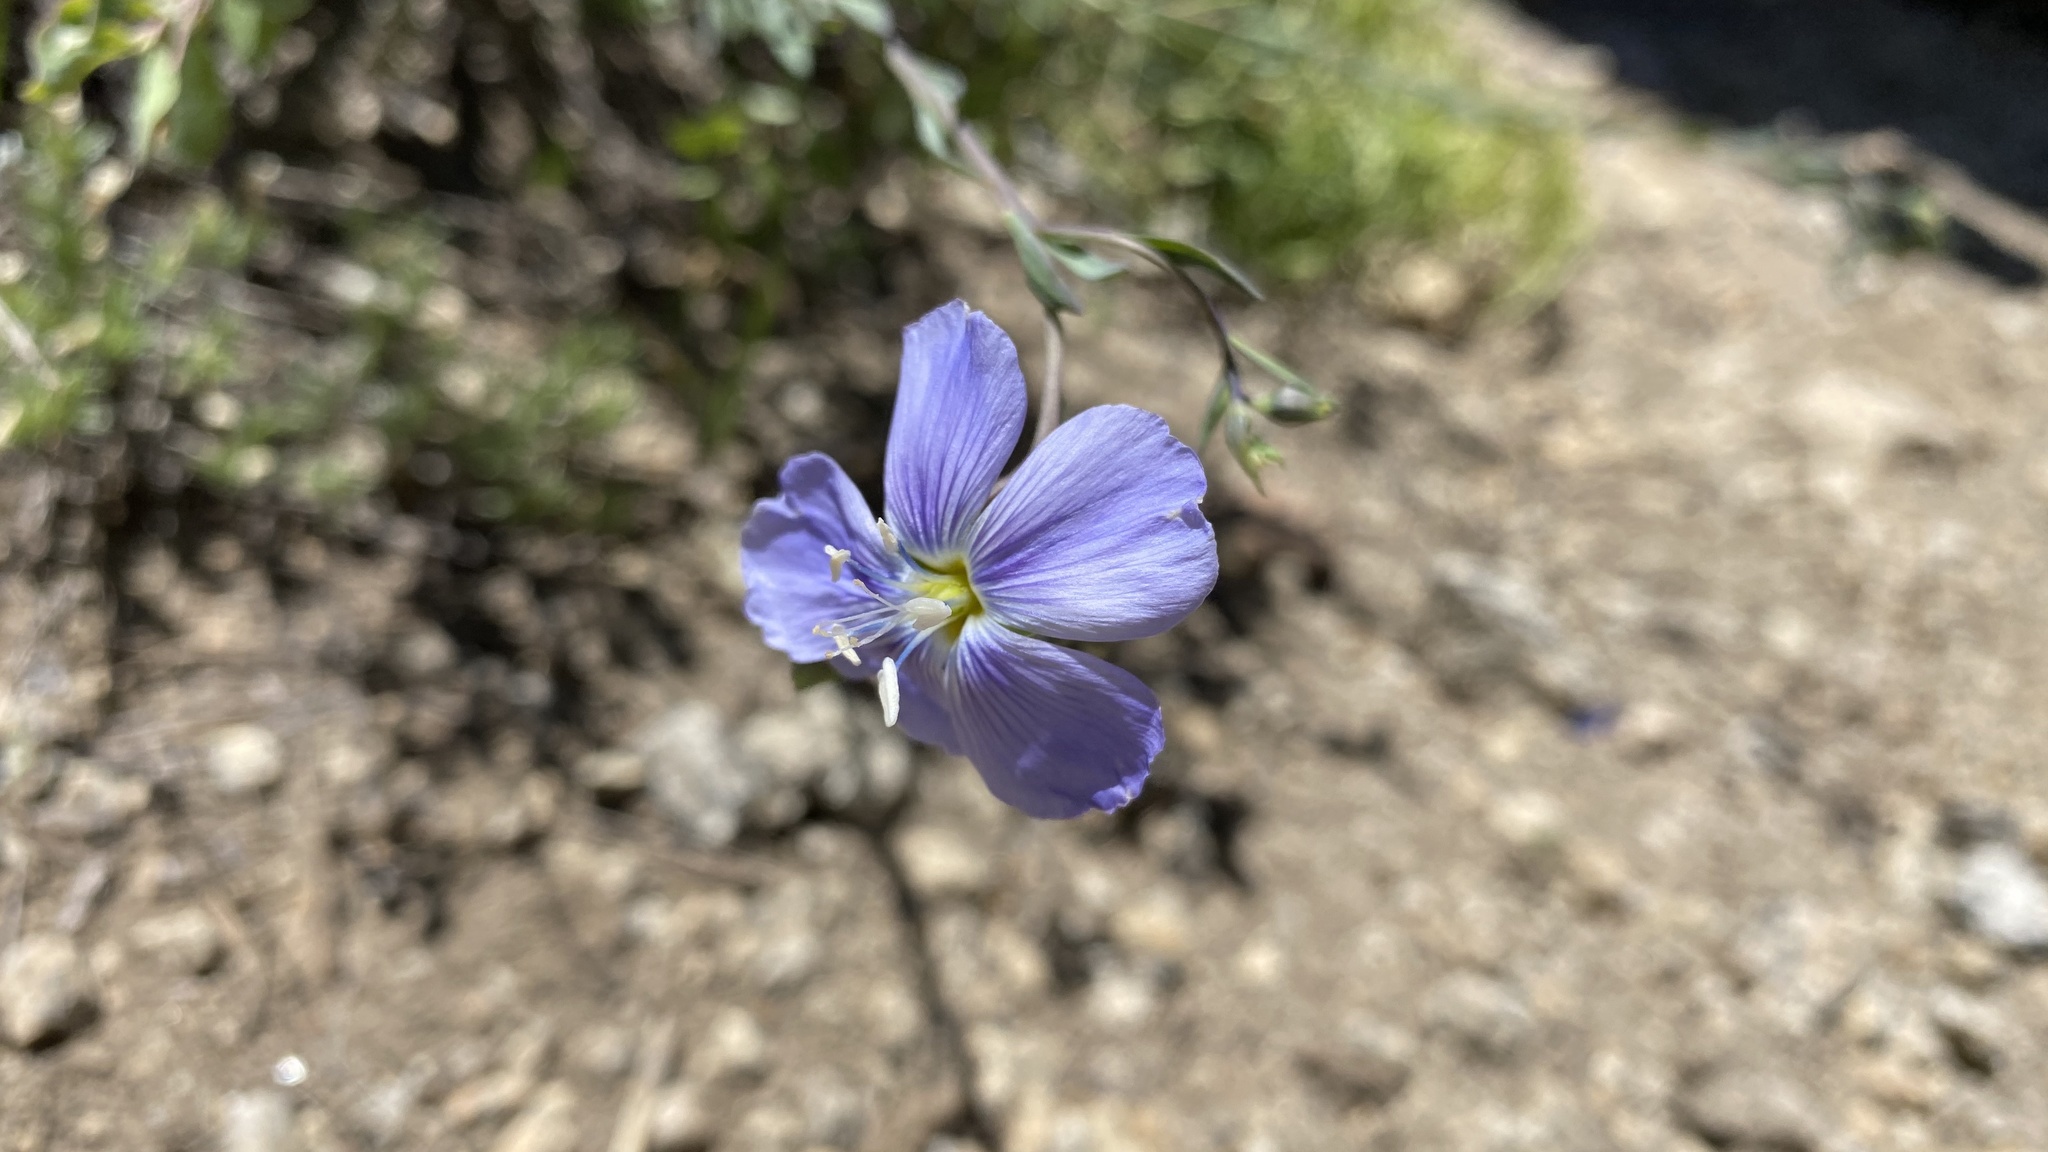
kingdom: Plantae
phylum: Tracheophyta
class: Magnoliopsida
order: Malpighiales
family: Linaceae
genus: Linum
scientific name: Linum lewisii
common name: Prairie flax
